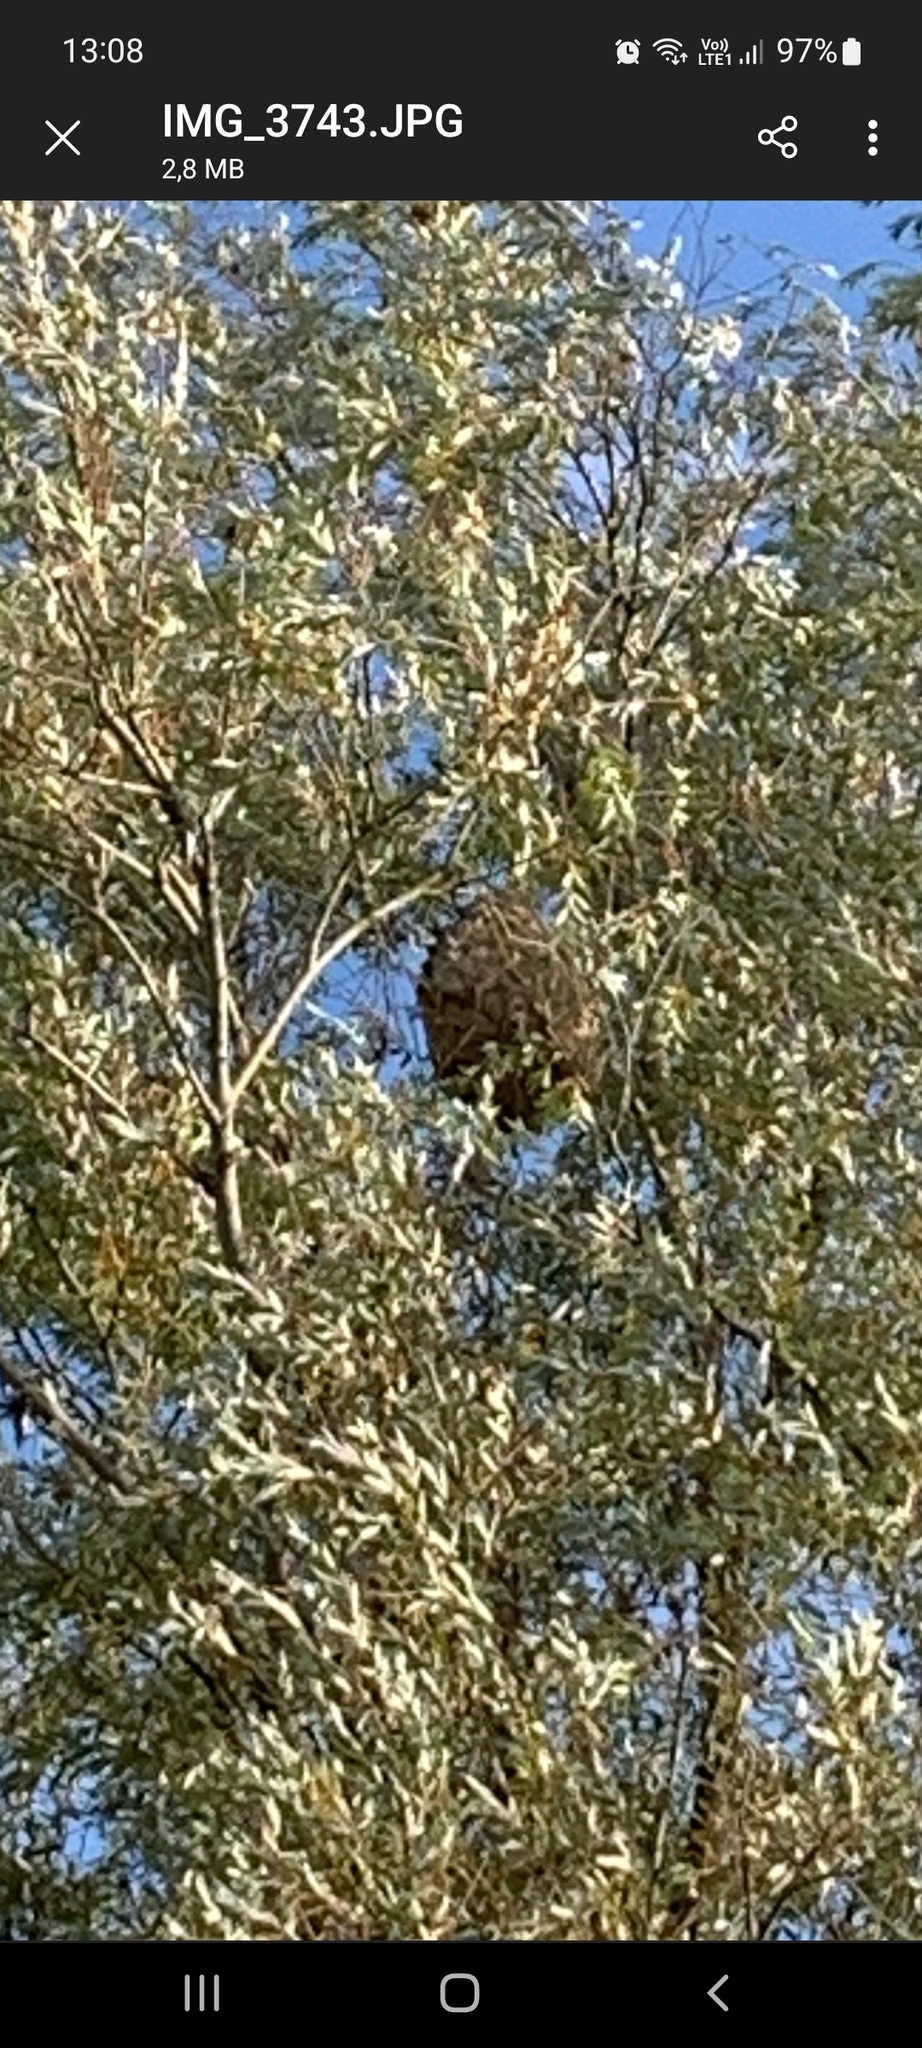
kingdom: Animalia
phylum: Arthropoda
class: Insecta
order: Hymenoptera
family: Vespidae
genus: Vespa
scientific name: Vespa velutina
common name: Asian hornet
